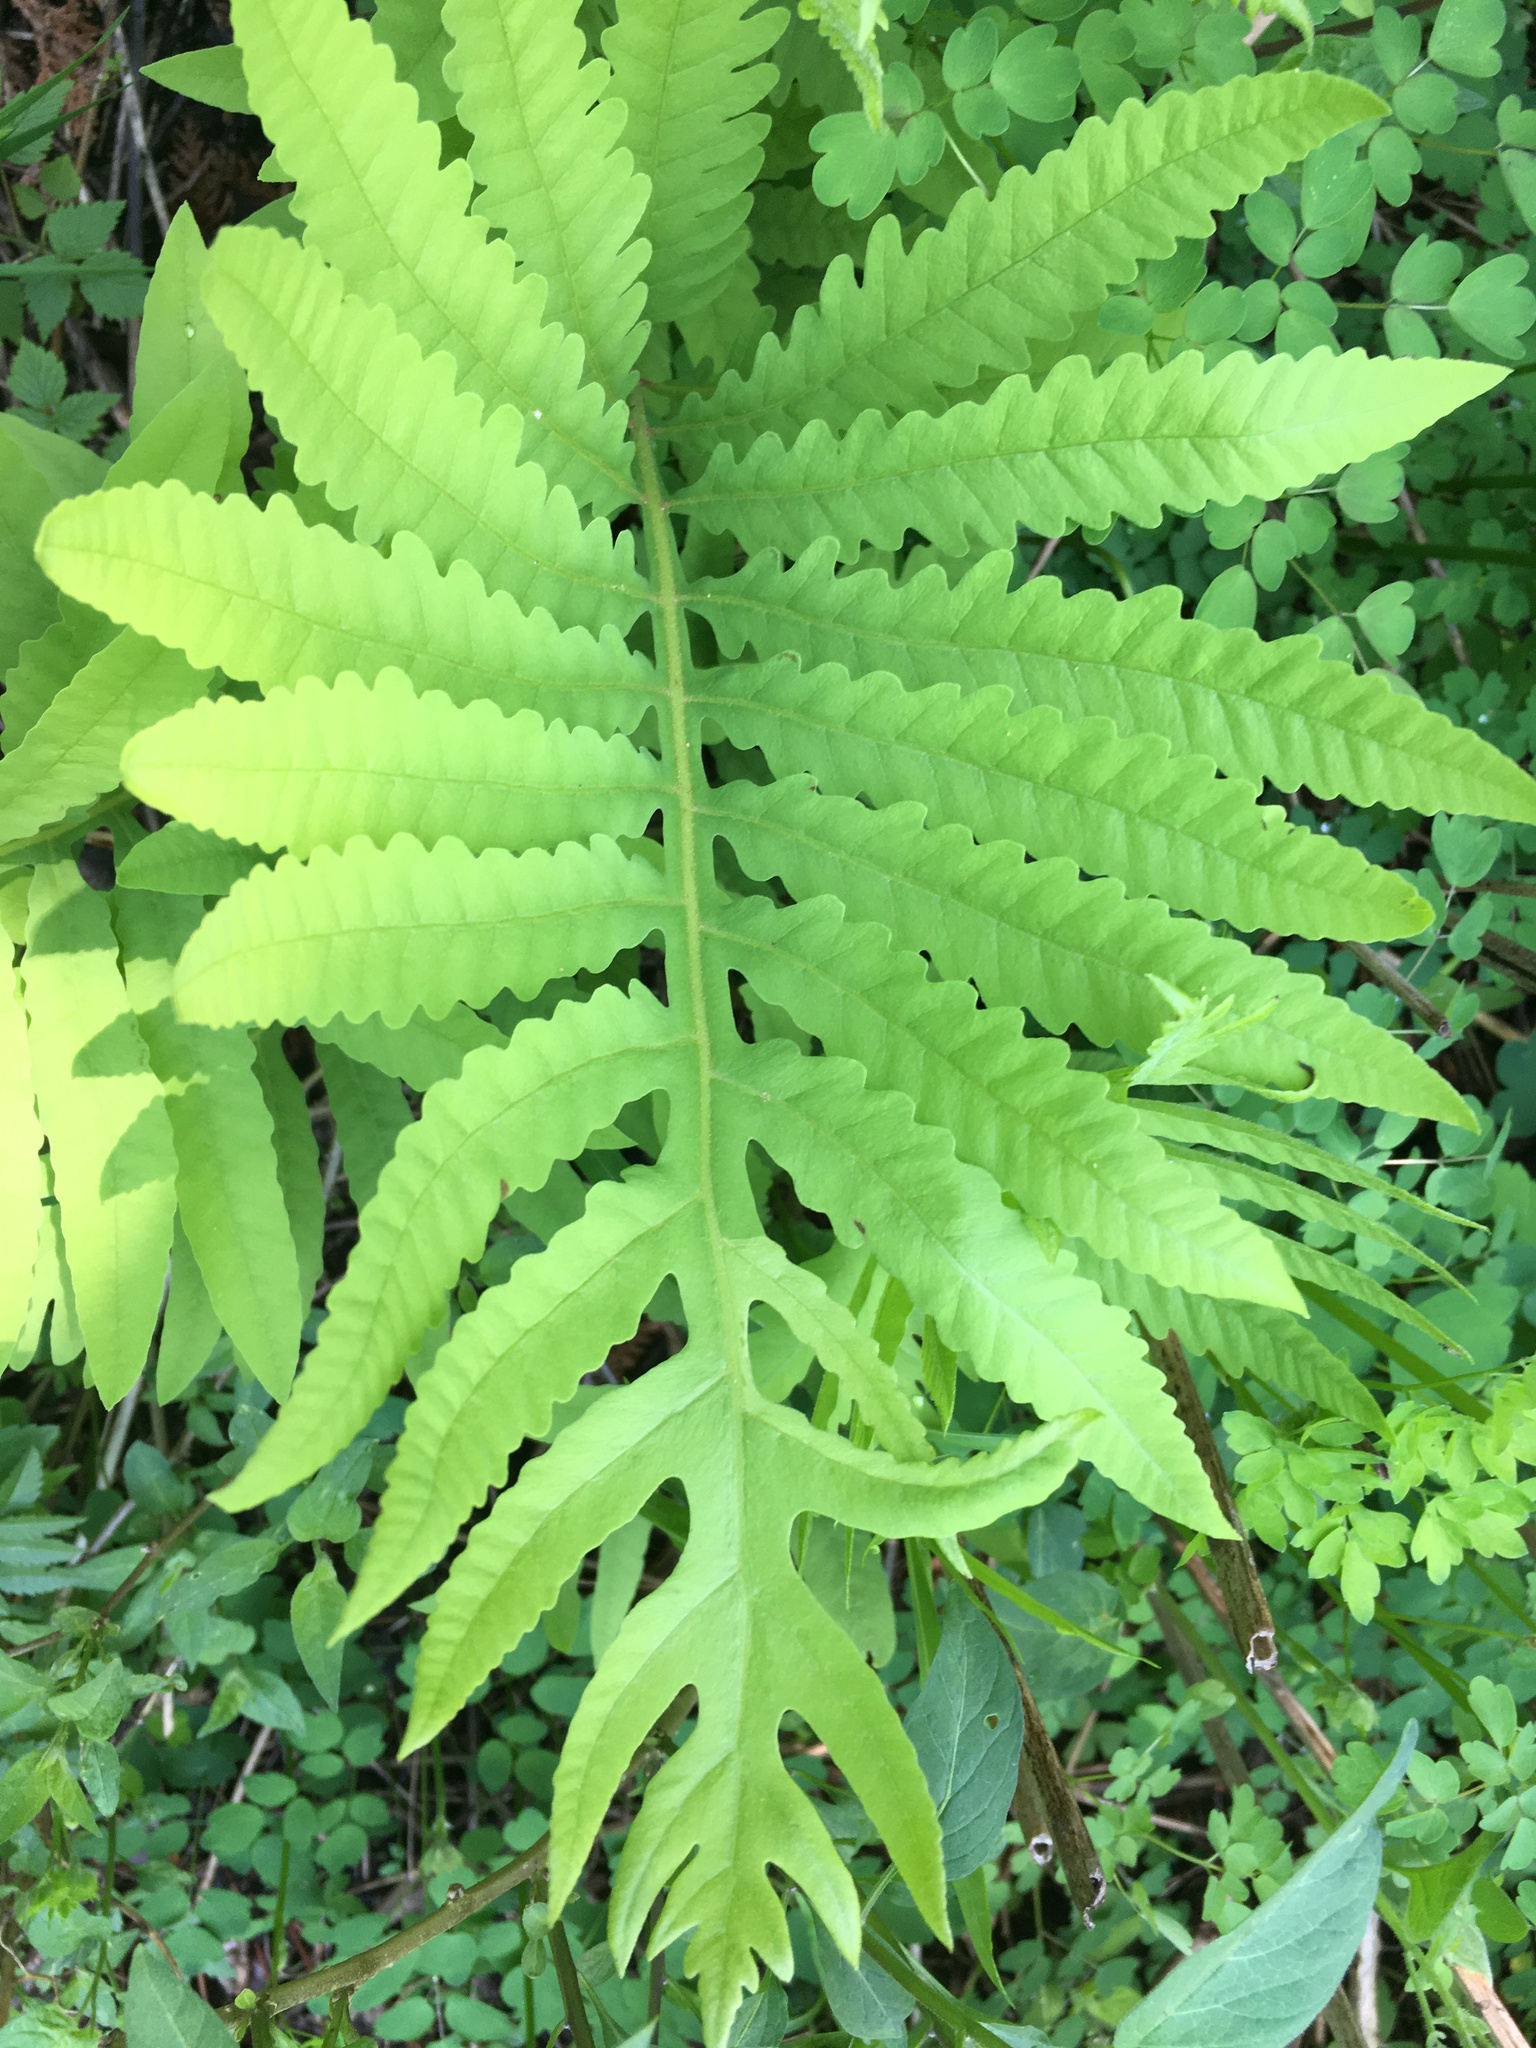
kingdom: Plantae
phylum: Tracheophyta
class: Polypodiopsida
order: Polypodiales
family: Onocleaceae
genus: Onoclea
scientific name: Onoclea sensibilis
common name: Sensitive fern
